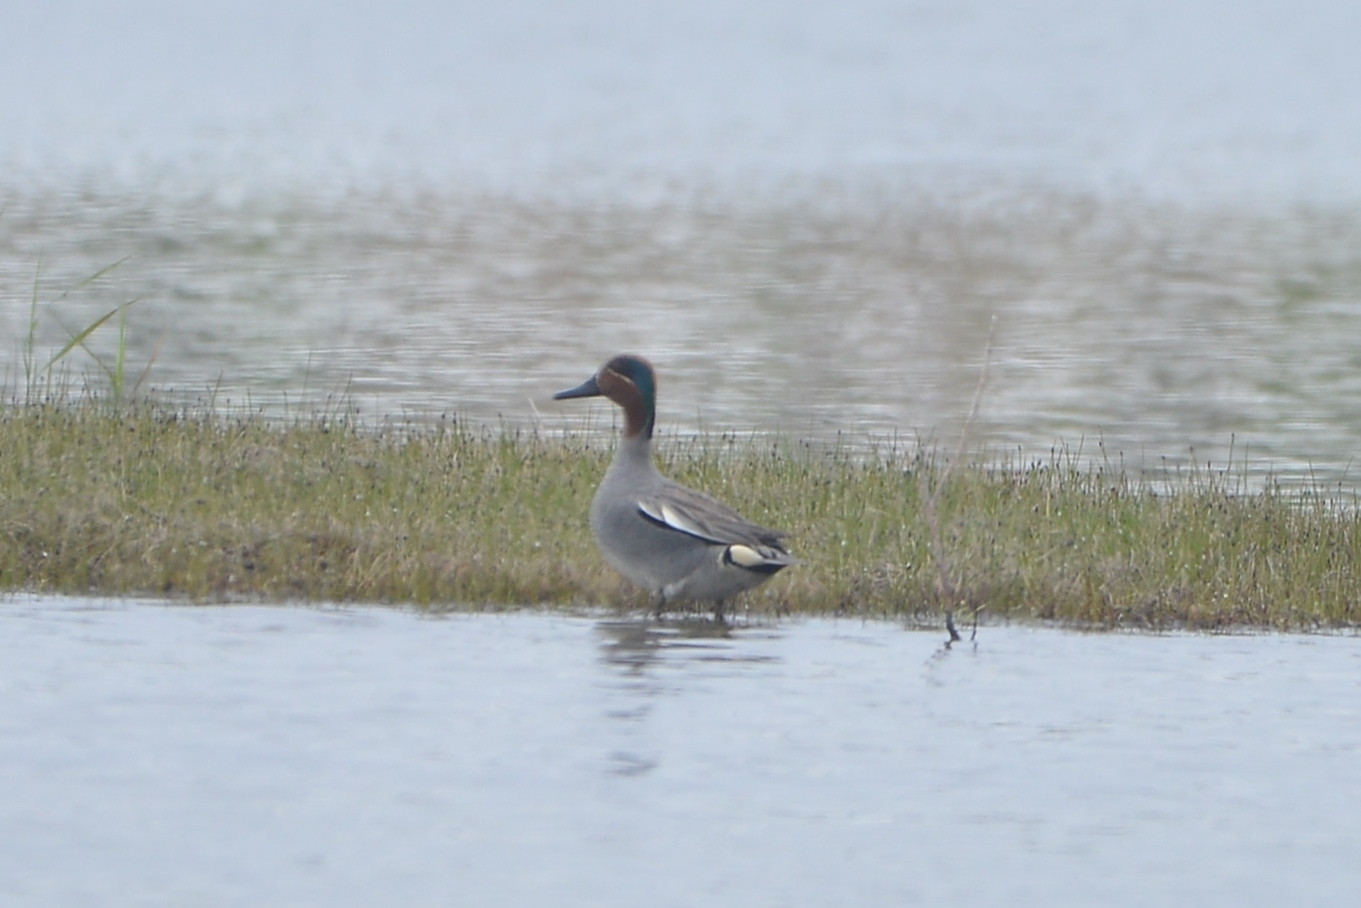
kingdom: Animalia
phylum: Chordata
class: Aves
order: Anseriformes
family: Anatidae
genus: Anas
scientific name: Anas crecca
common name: Eurasian teal
